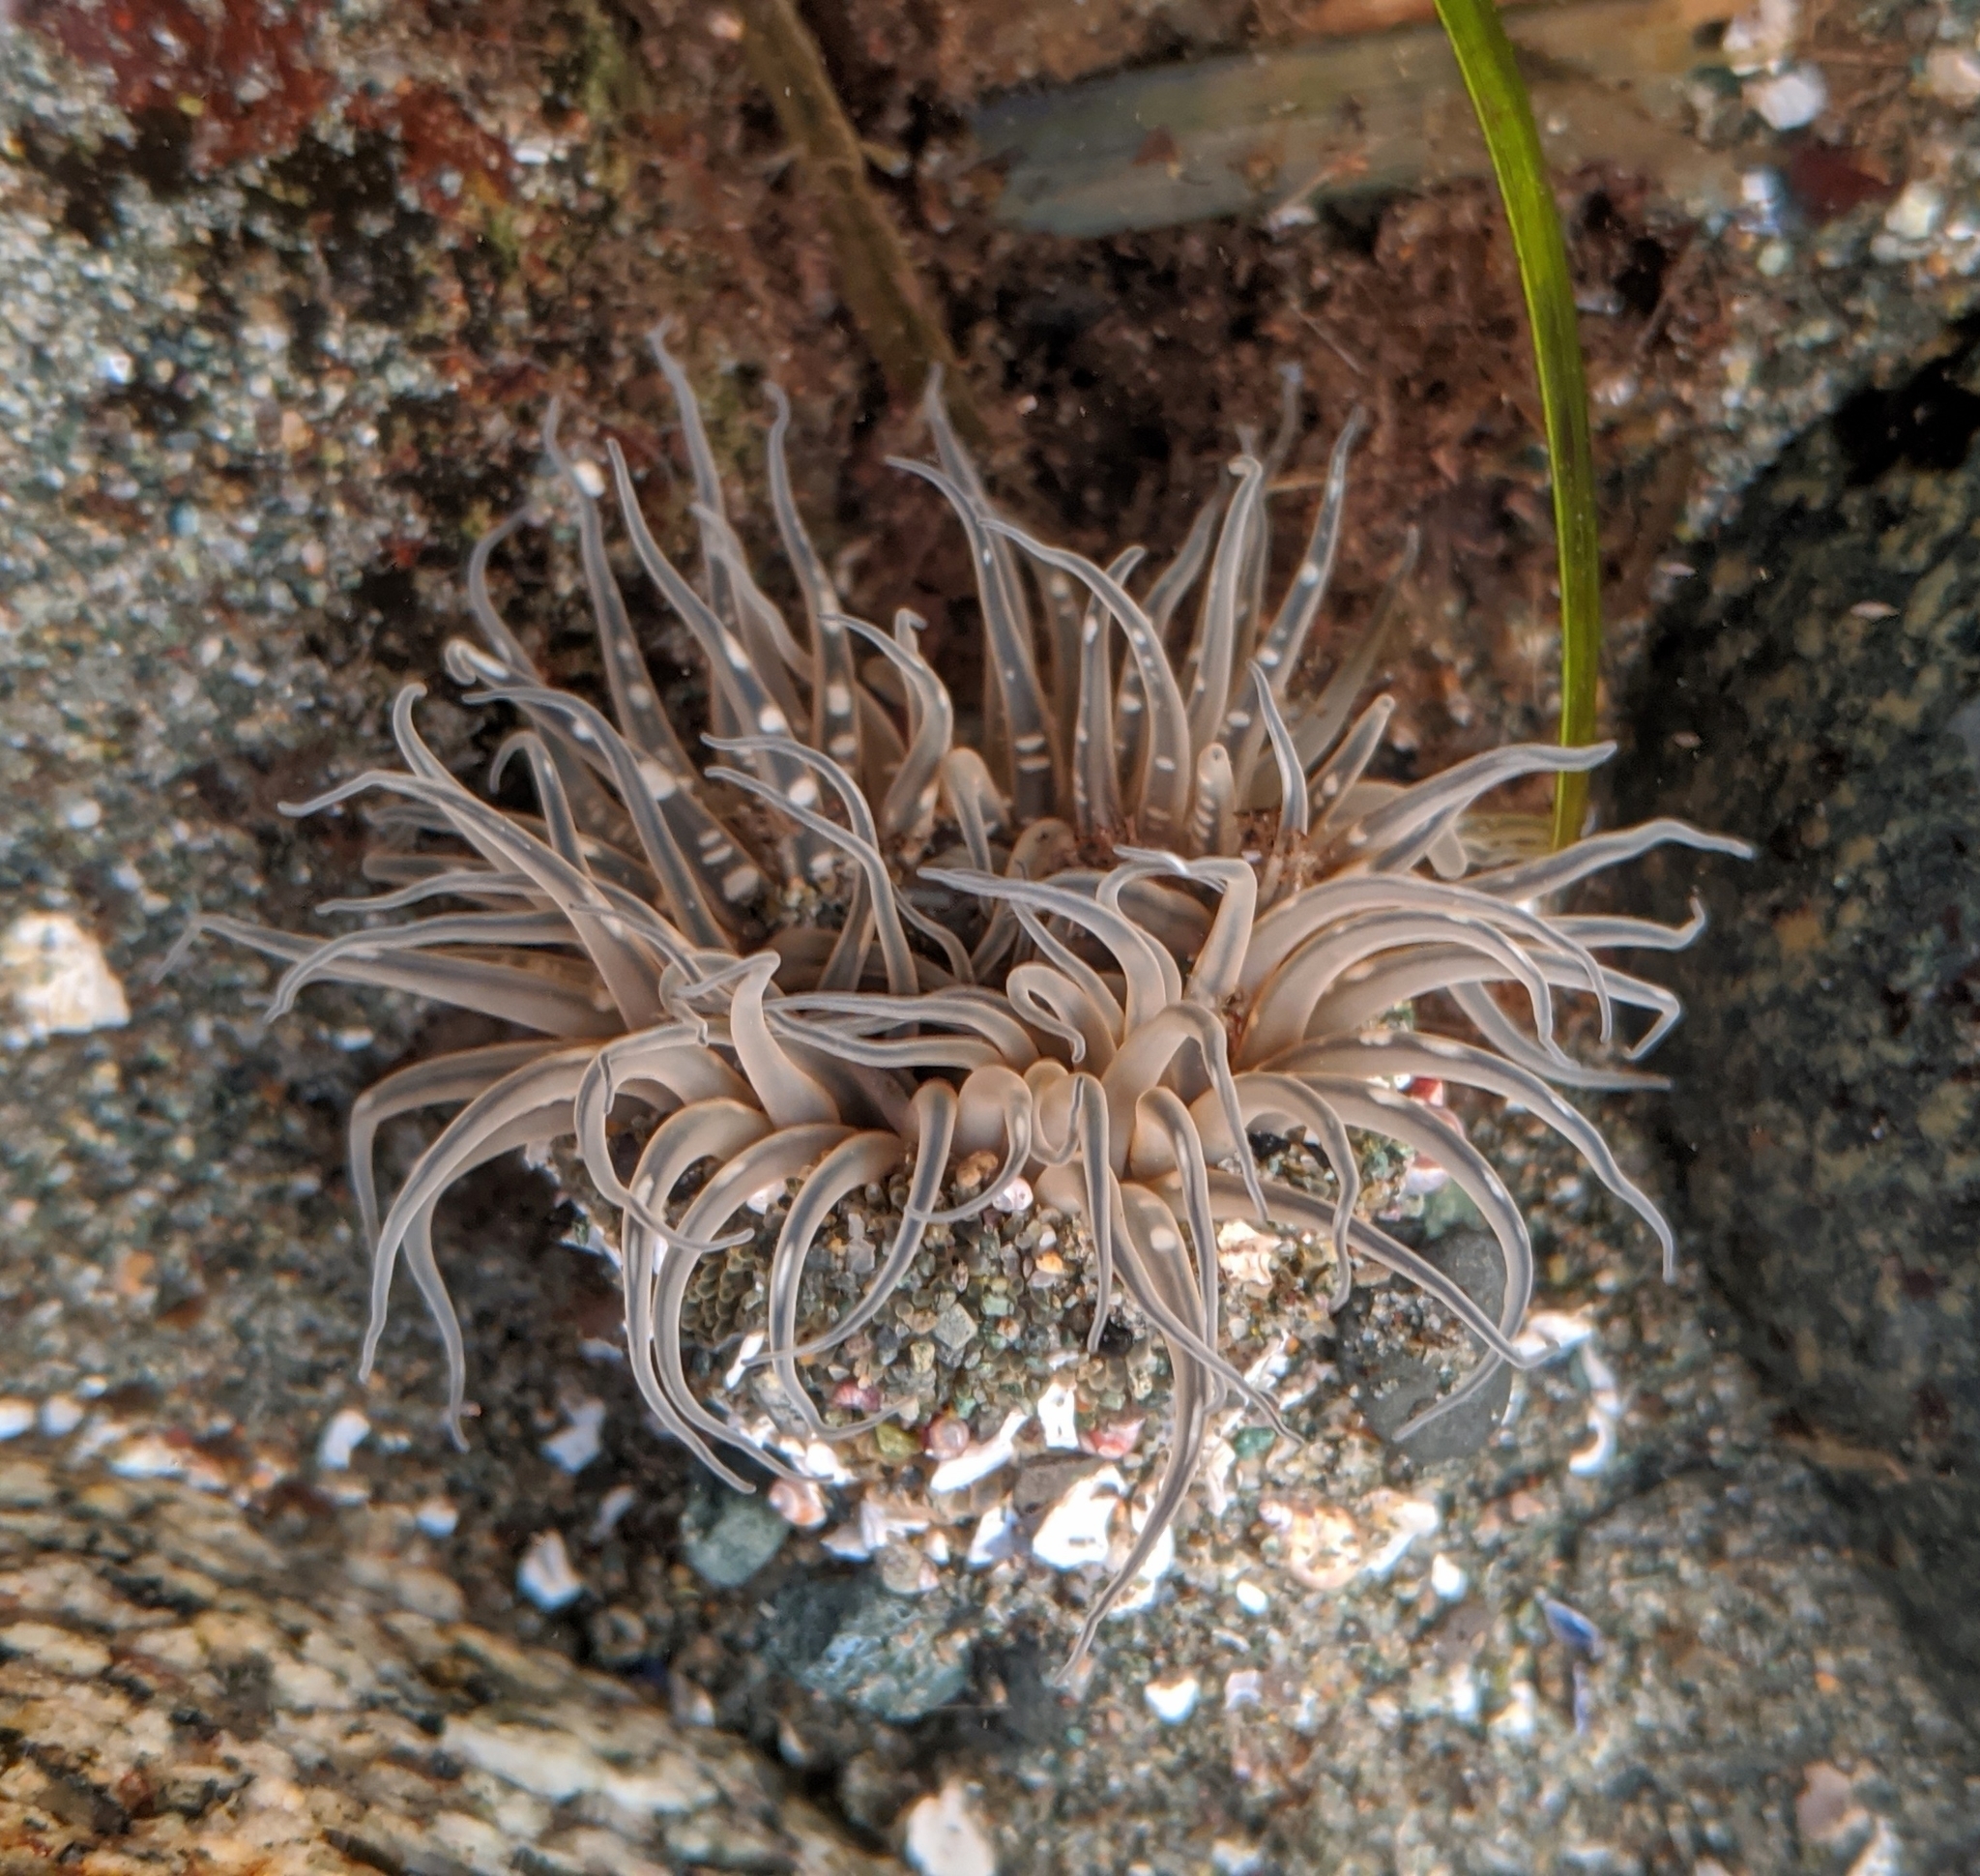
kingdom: Animalia
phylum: Cnidaria
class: Anthozoa
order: Actiniaria
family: Actiniidae
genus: Anthopleura
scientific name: Anthopleura artemisia
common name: Buried sea anemone
